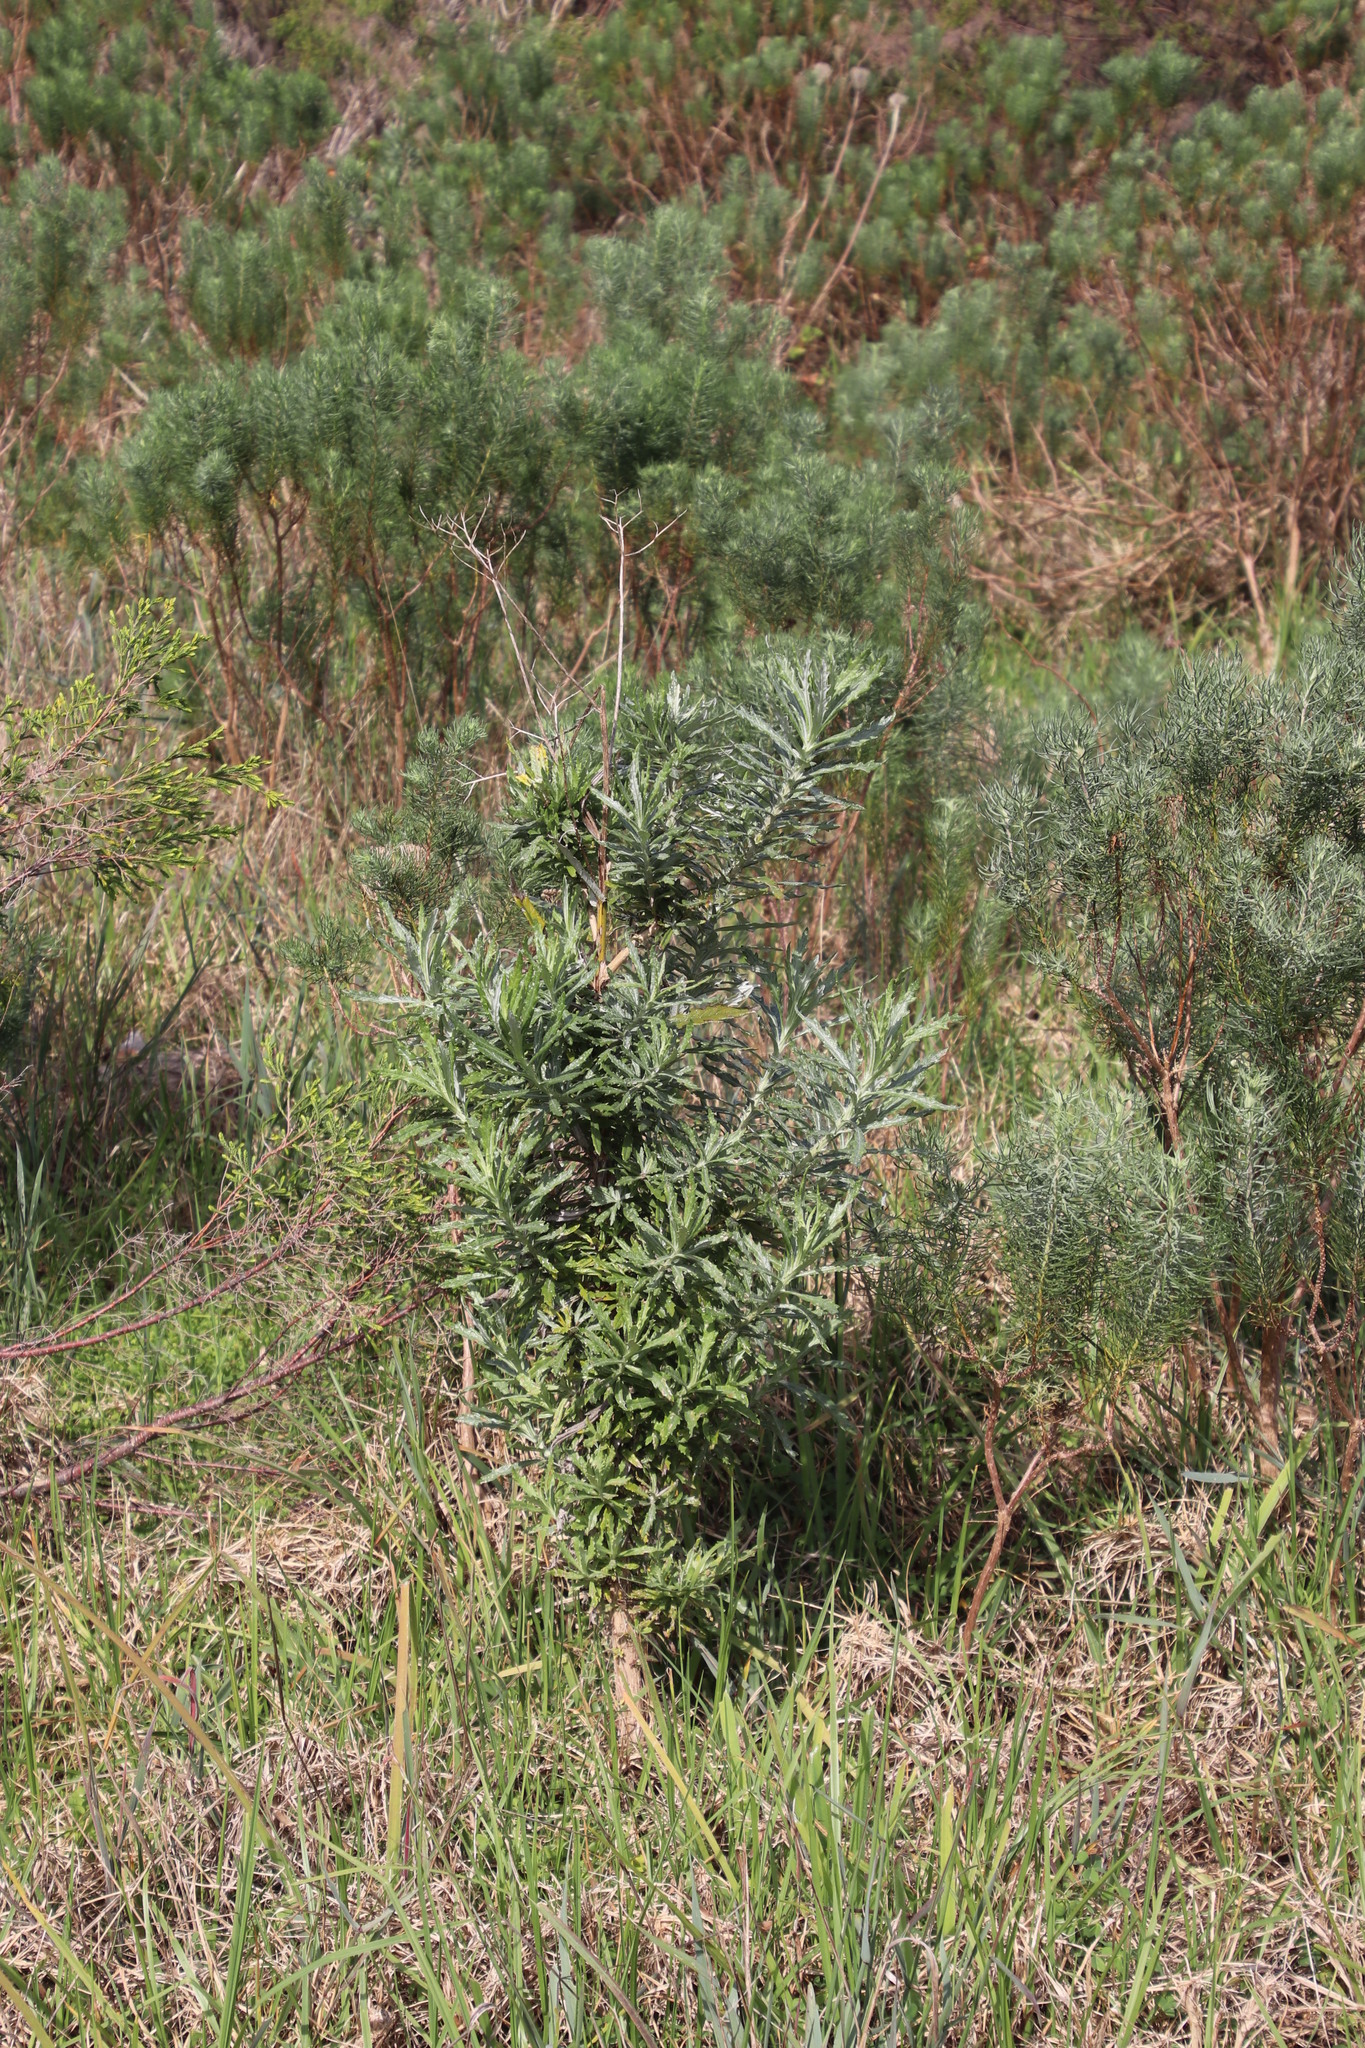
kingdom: Plantae
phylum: Tracheophyta
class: Magnoliopsida
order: Asterales
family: Asteraceae
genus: Senecio
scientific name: Senecio pterophorus
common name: Shoddy ragwort
